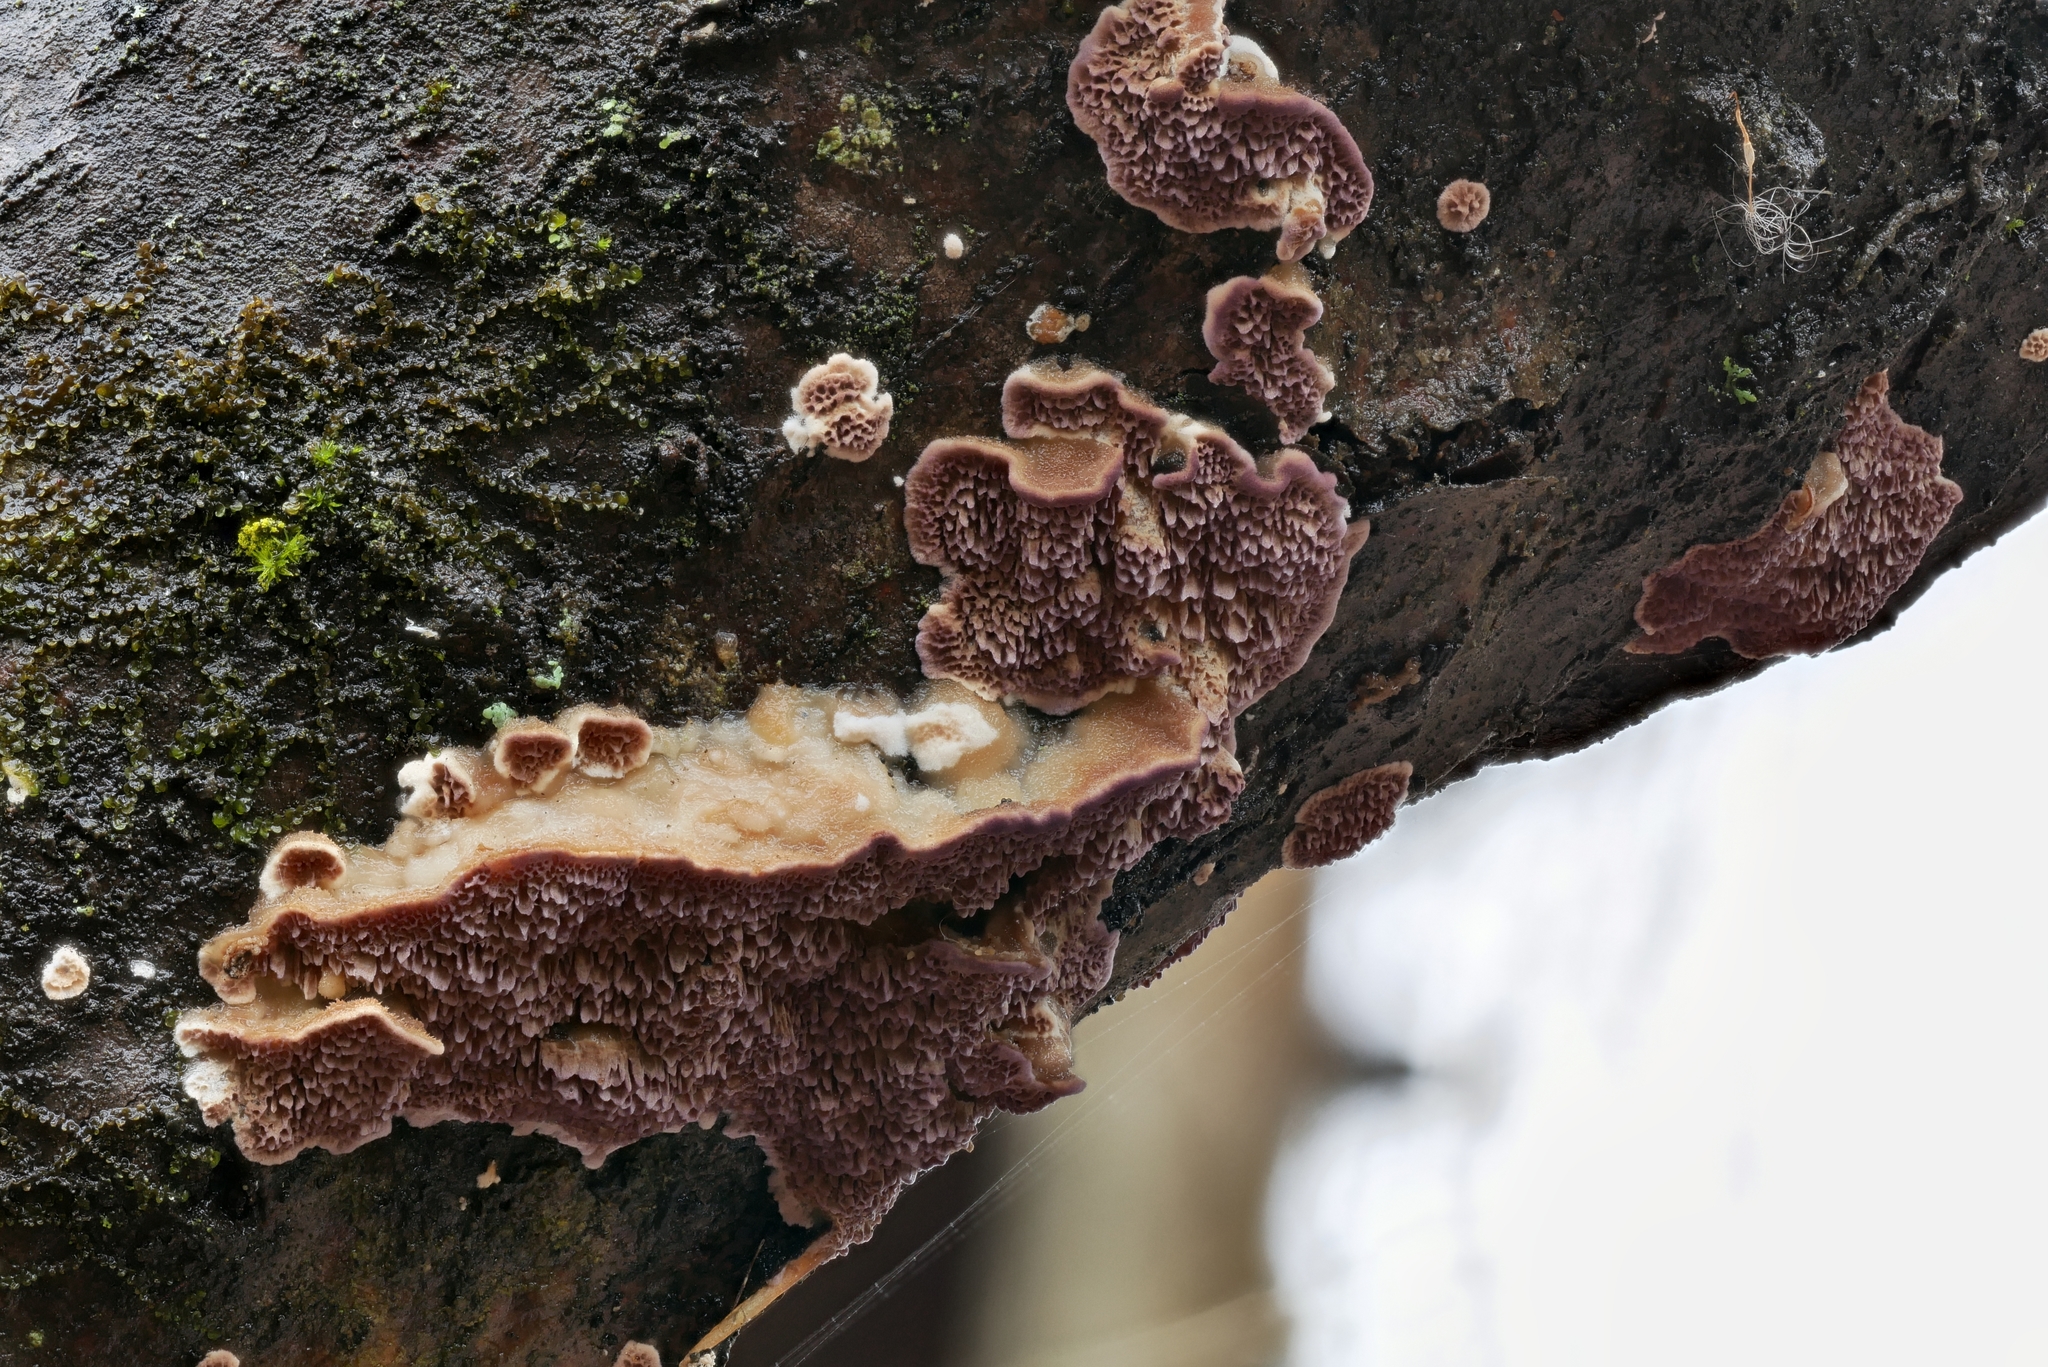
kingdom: Fungi
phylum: Basidiomycota
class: Agaricomycetes
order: Hymenochaetales
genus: Trichaptum
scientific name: Trichaptum subchartaceum
